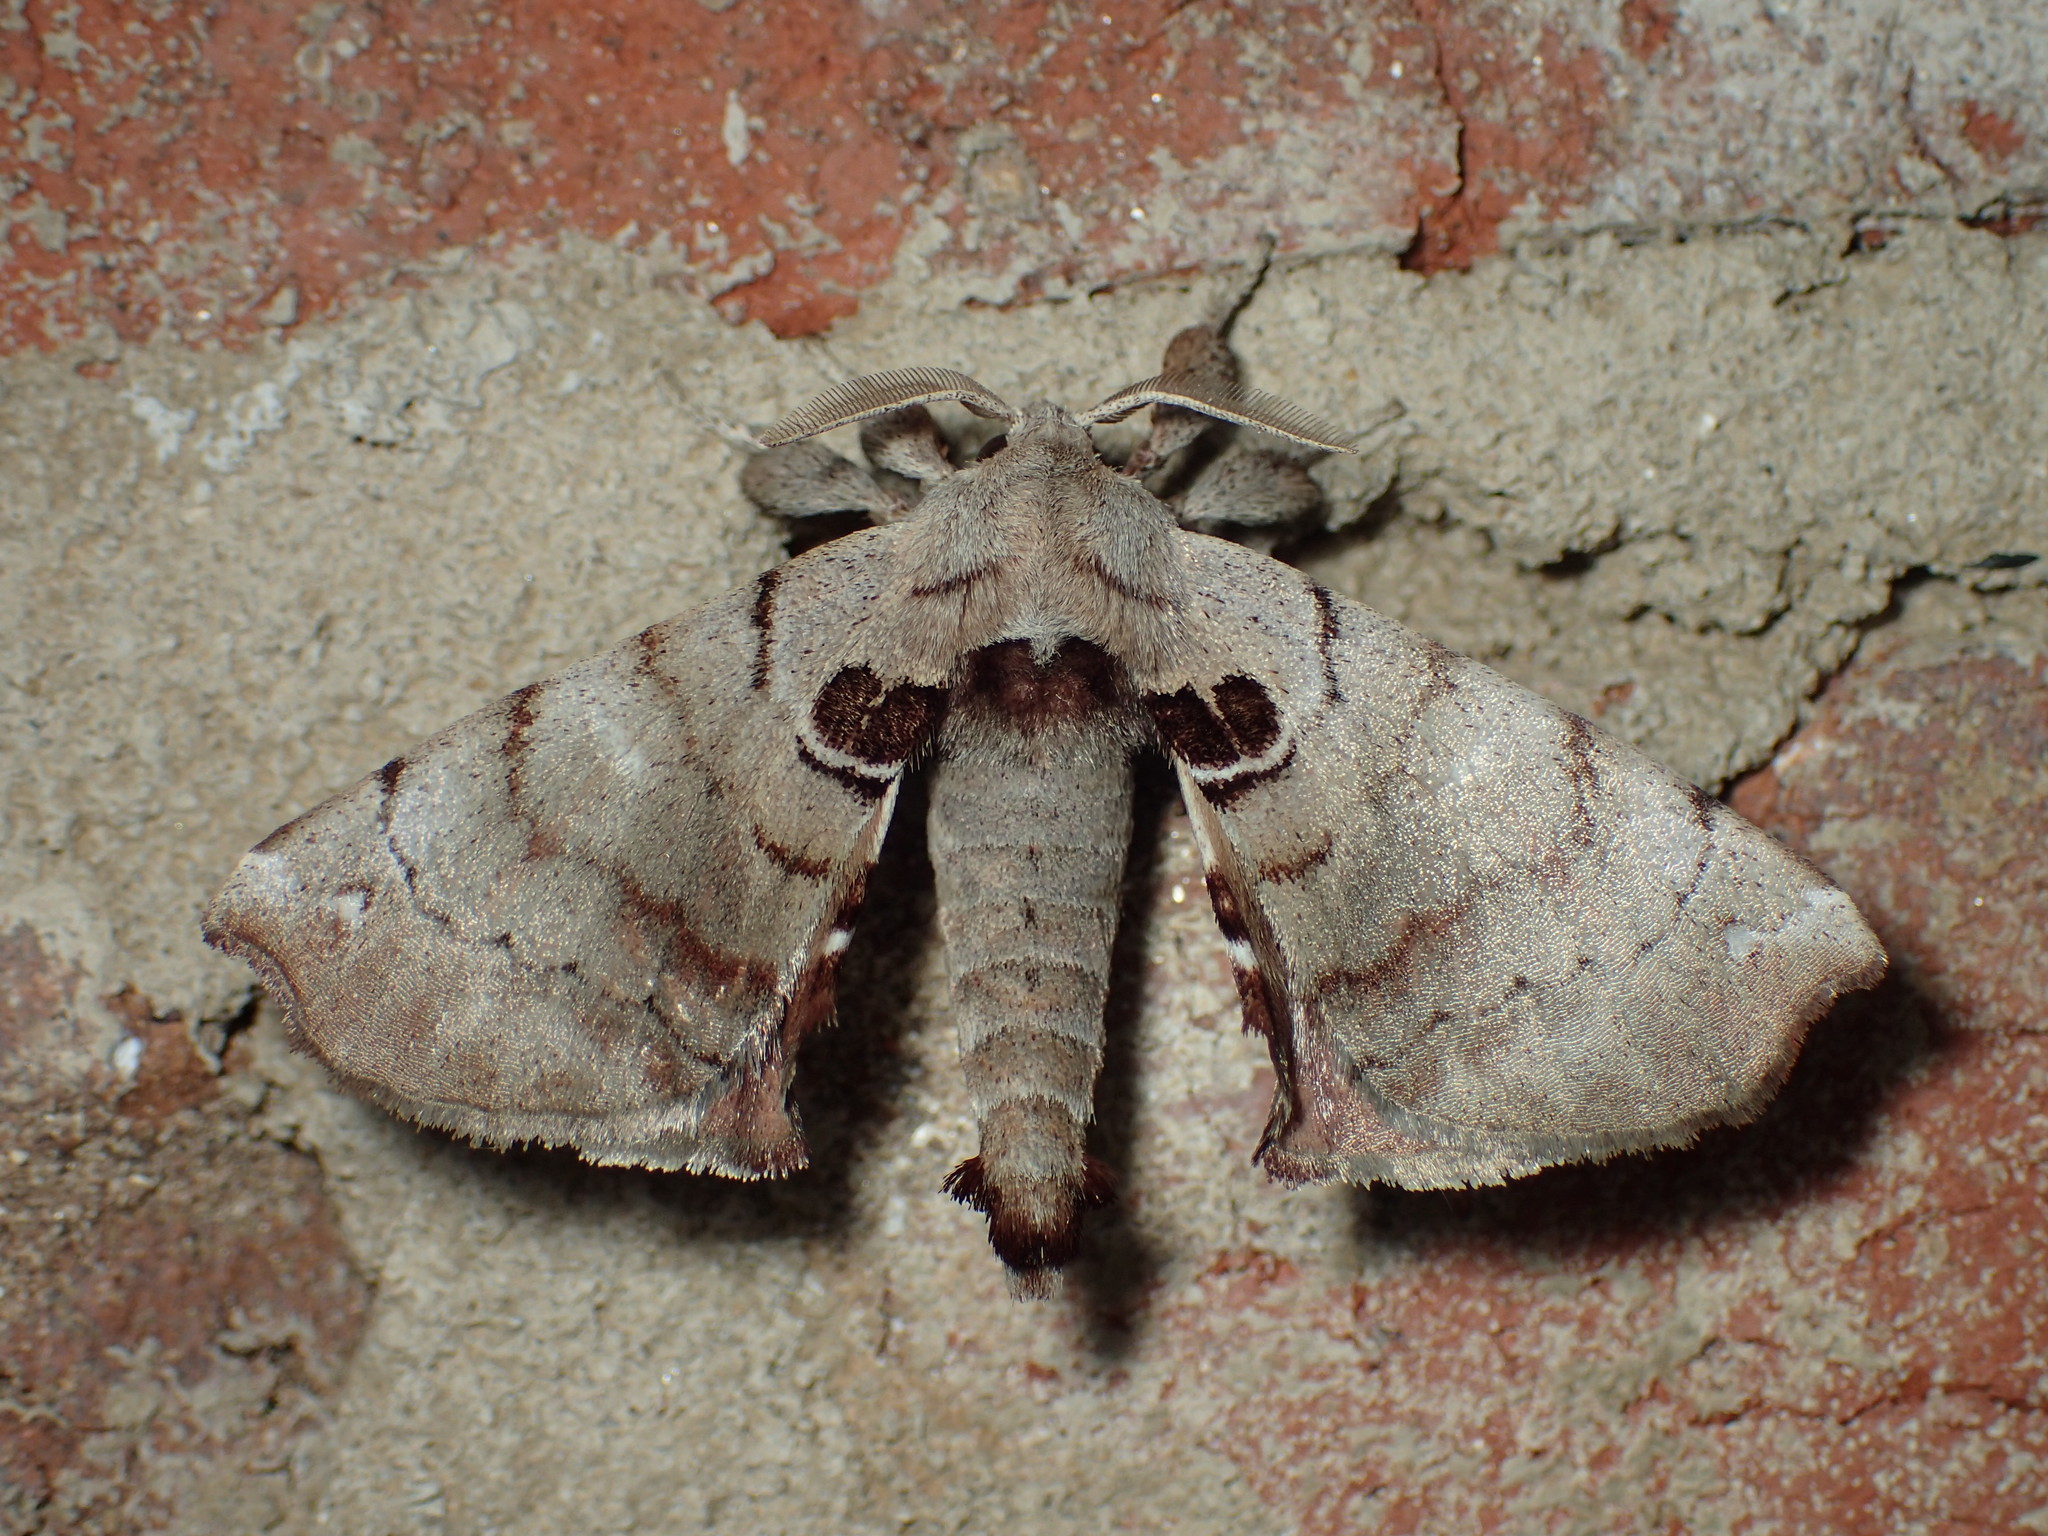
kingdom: Animalia
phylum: Arthropoda
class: Insecta
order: Lepidoptera
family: Apatelodidae
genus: Hygrochroa
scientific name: Hygrochroa Apatelodes torrefacta
